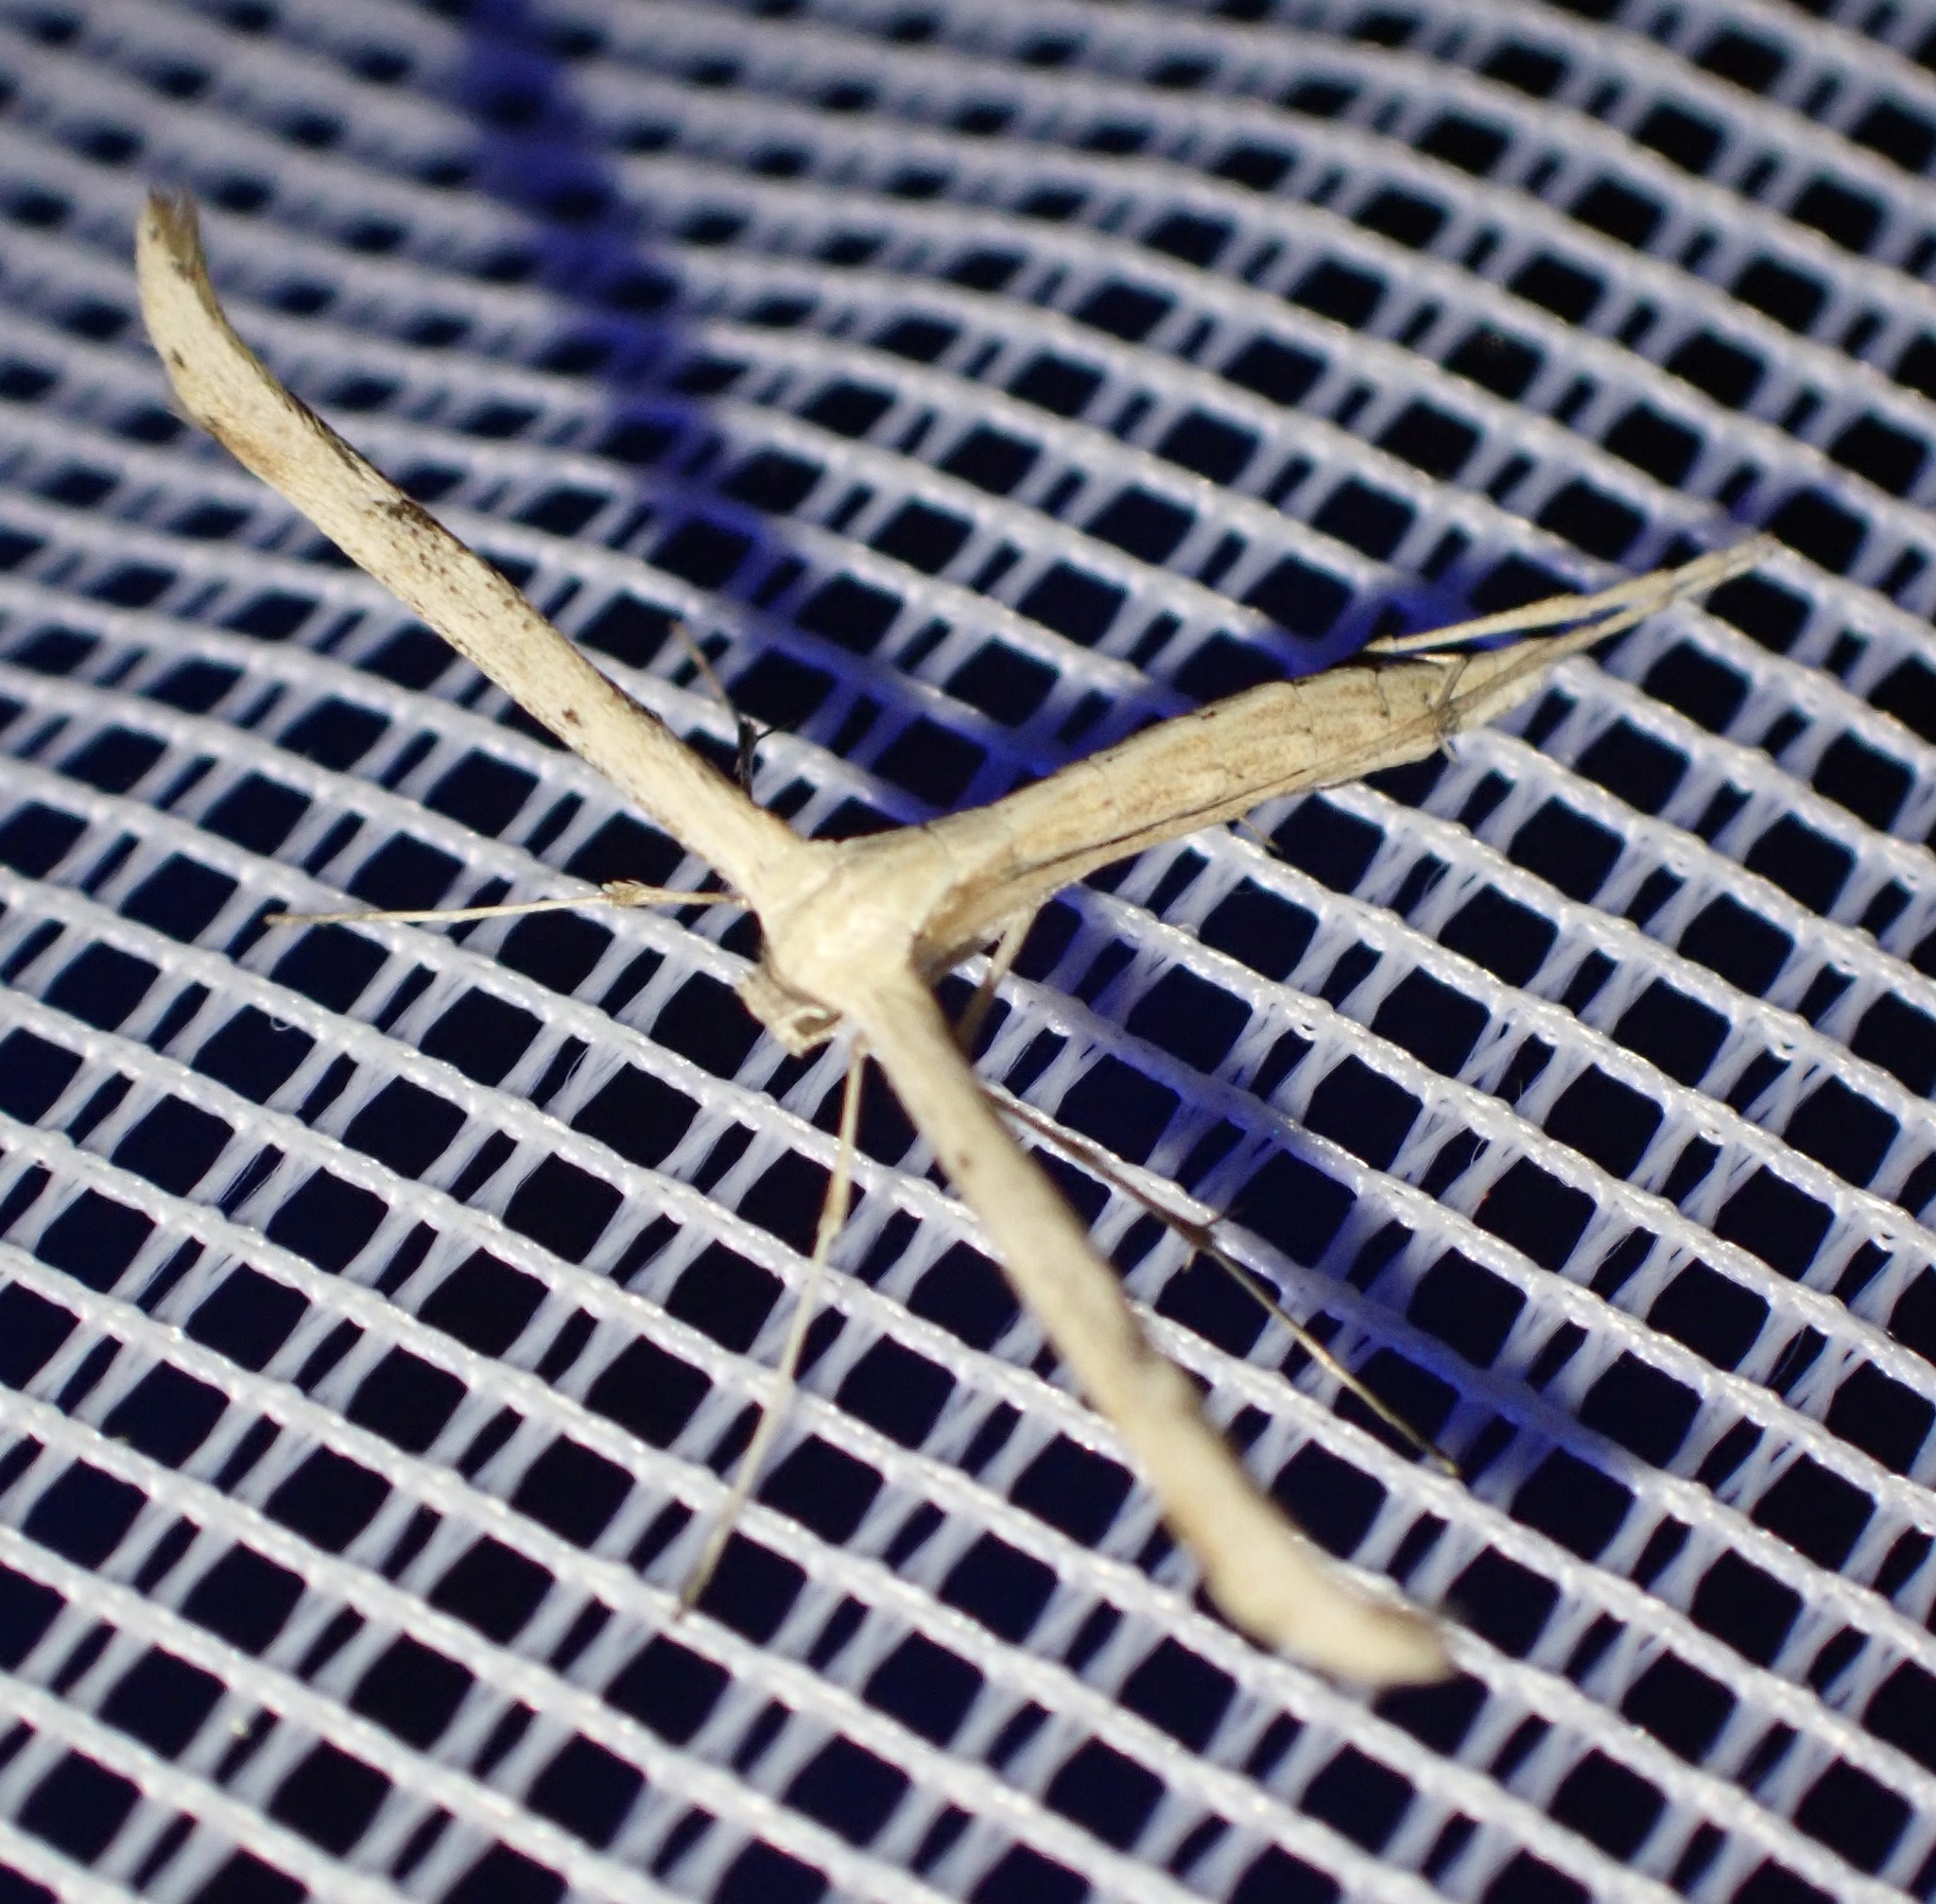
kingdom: Animalia
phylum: Arthropoda
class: Insecta
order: Lepidoptera
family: Pterophoridae
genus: Emmelina
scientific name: Emmelina monodactyla
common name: Common plume
